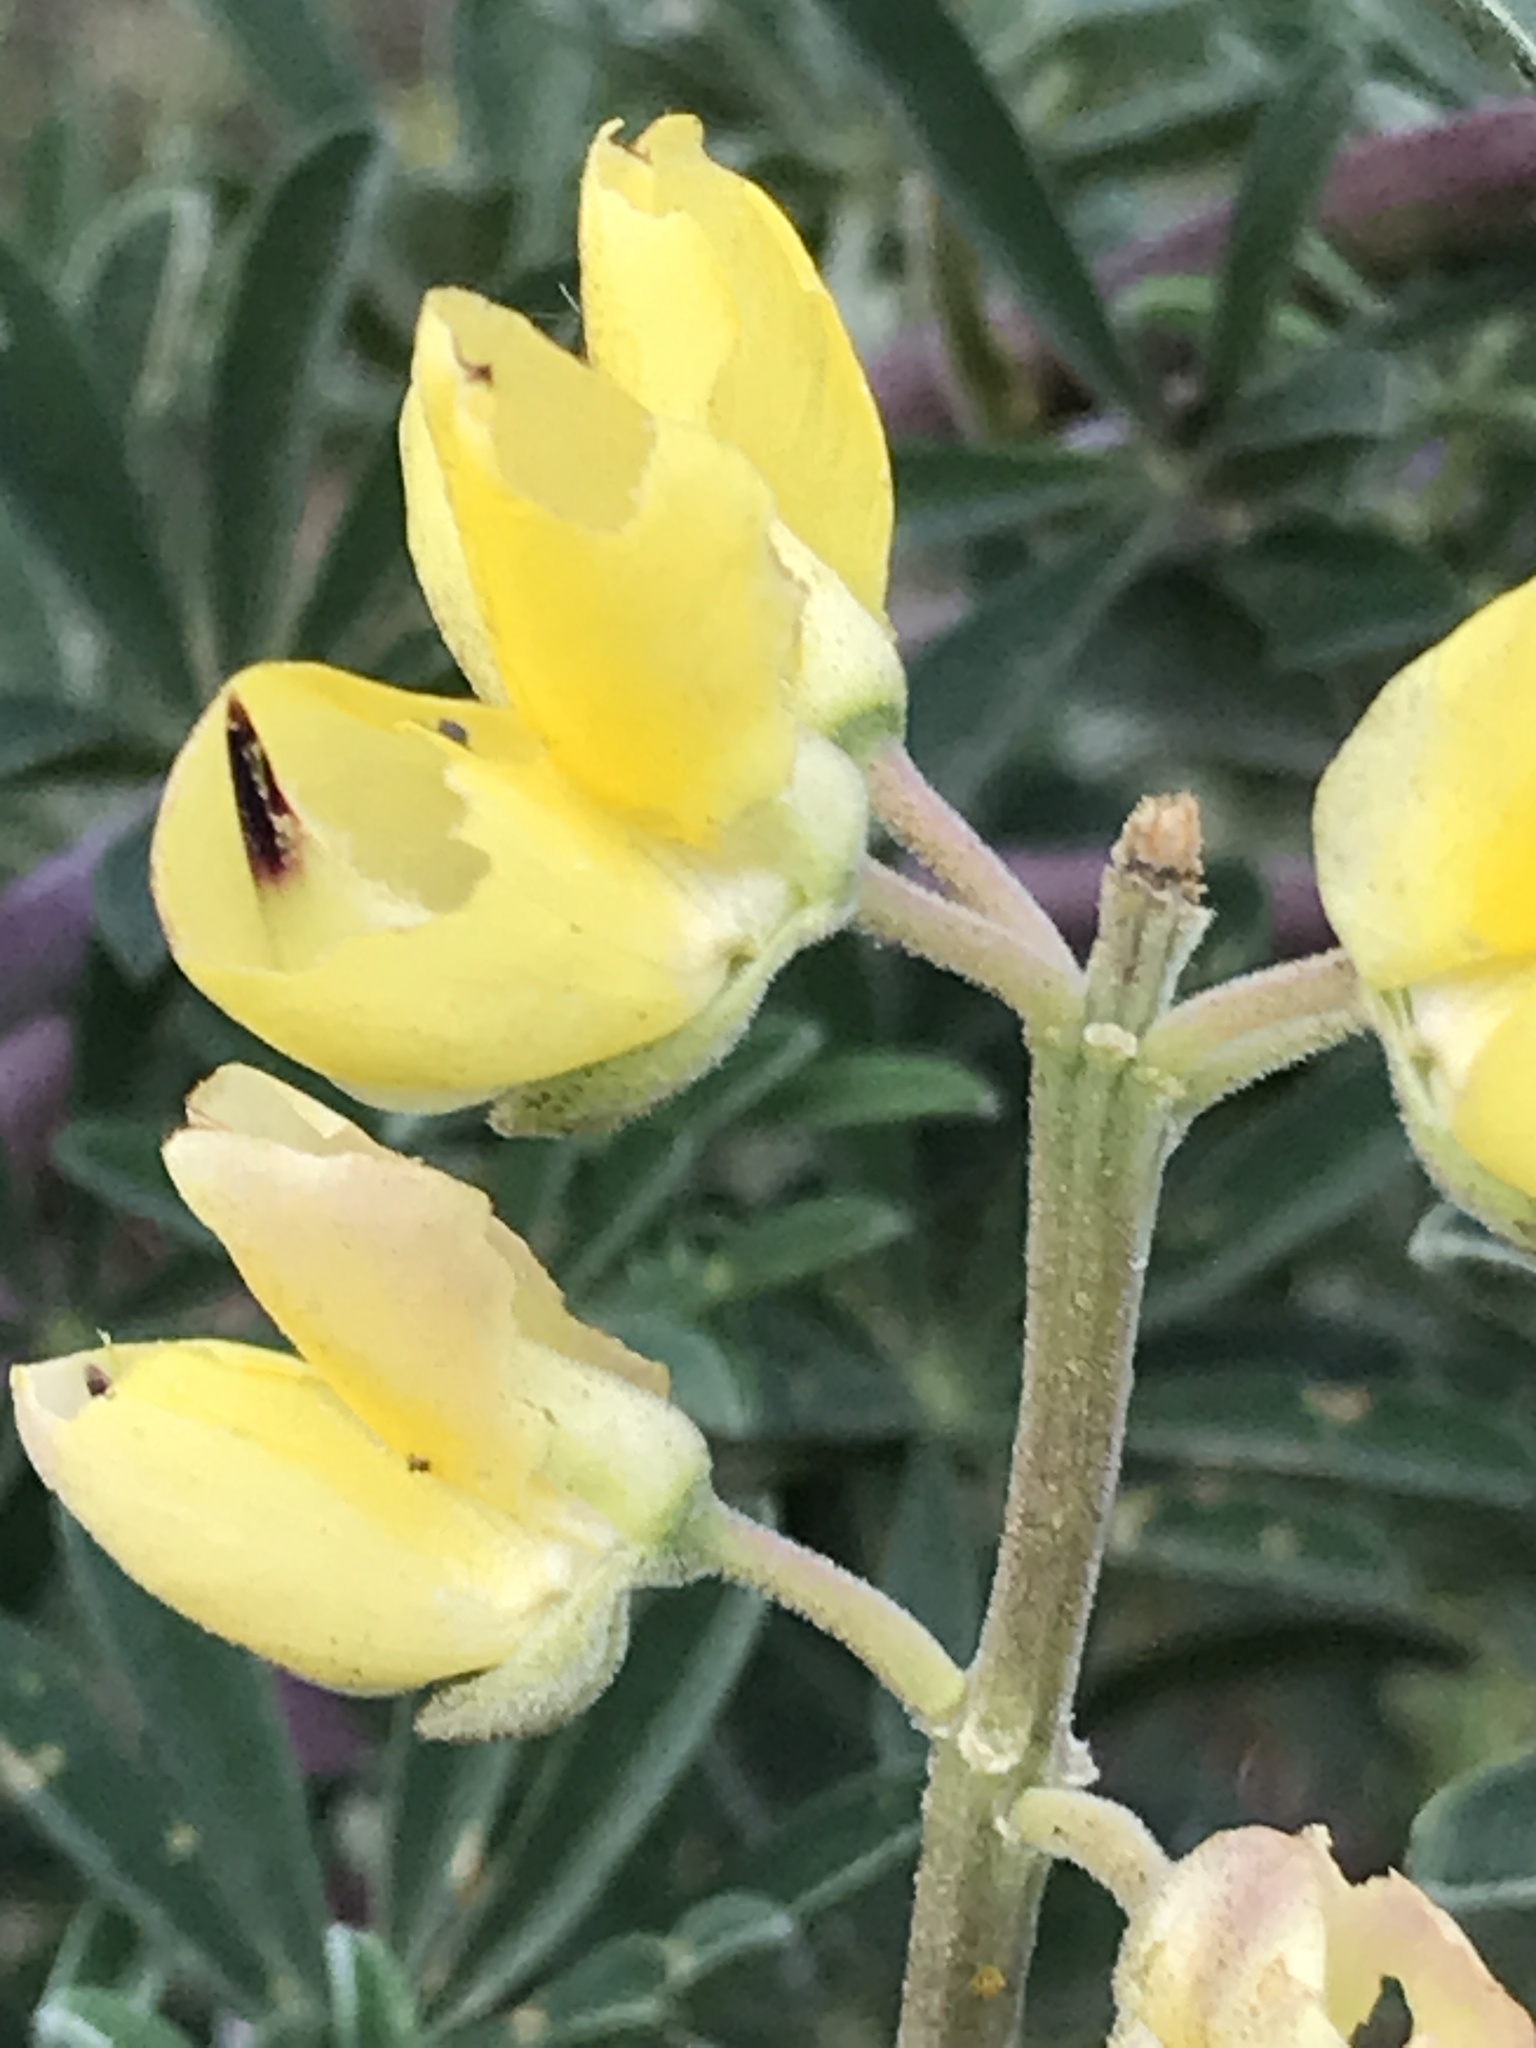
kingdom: Plantae
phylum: Tracheophyta
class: Magnoliopsida
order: Fabales
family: Fabaceae
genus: Lupinus
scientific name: Lupinus arboreus
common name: Yellow bush lupine
